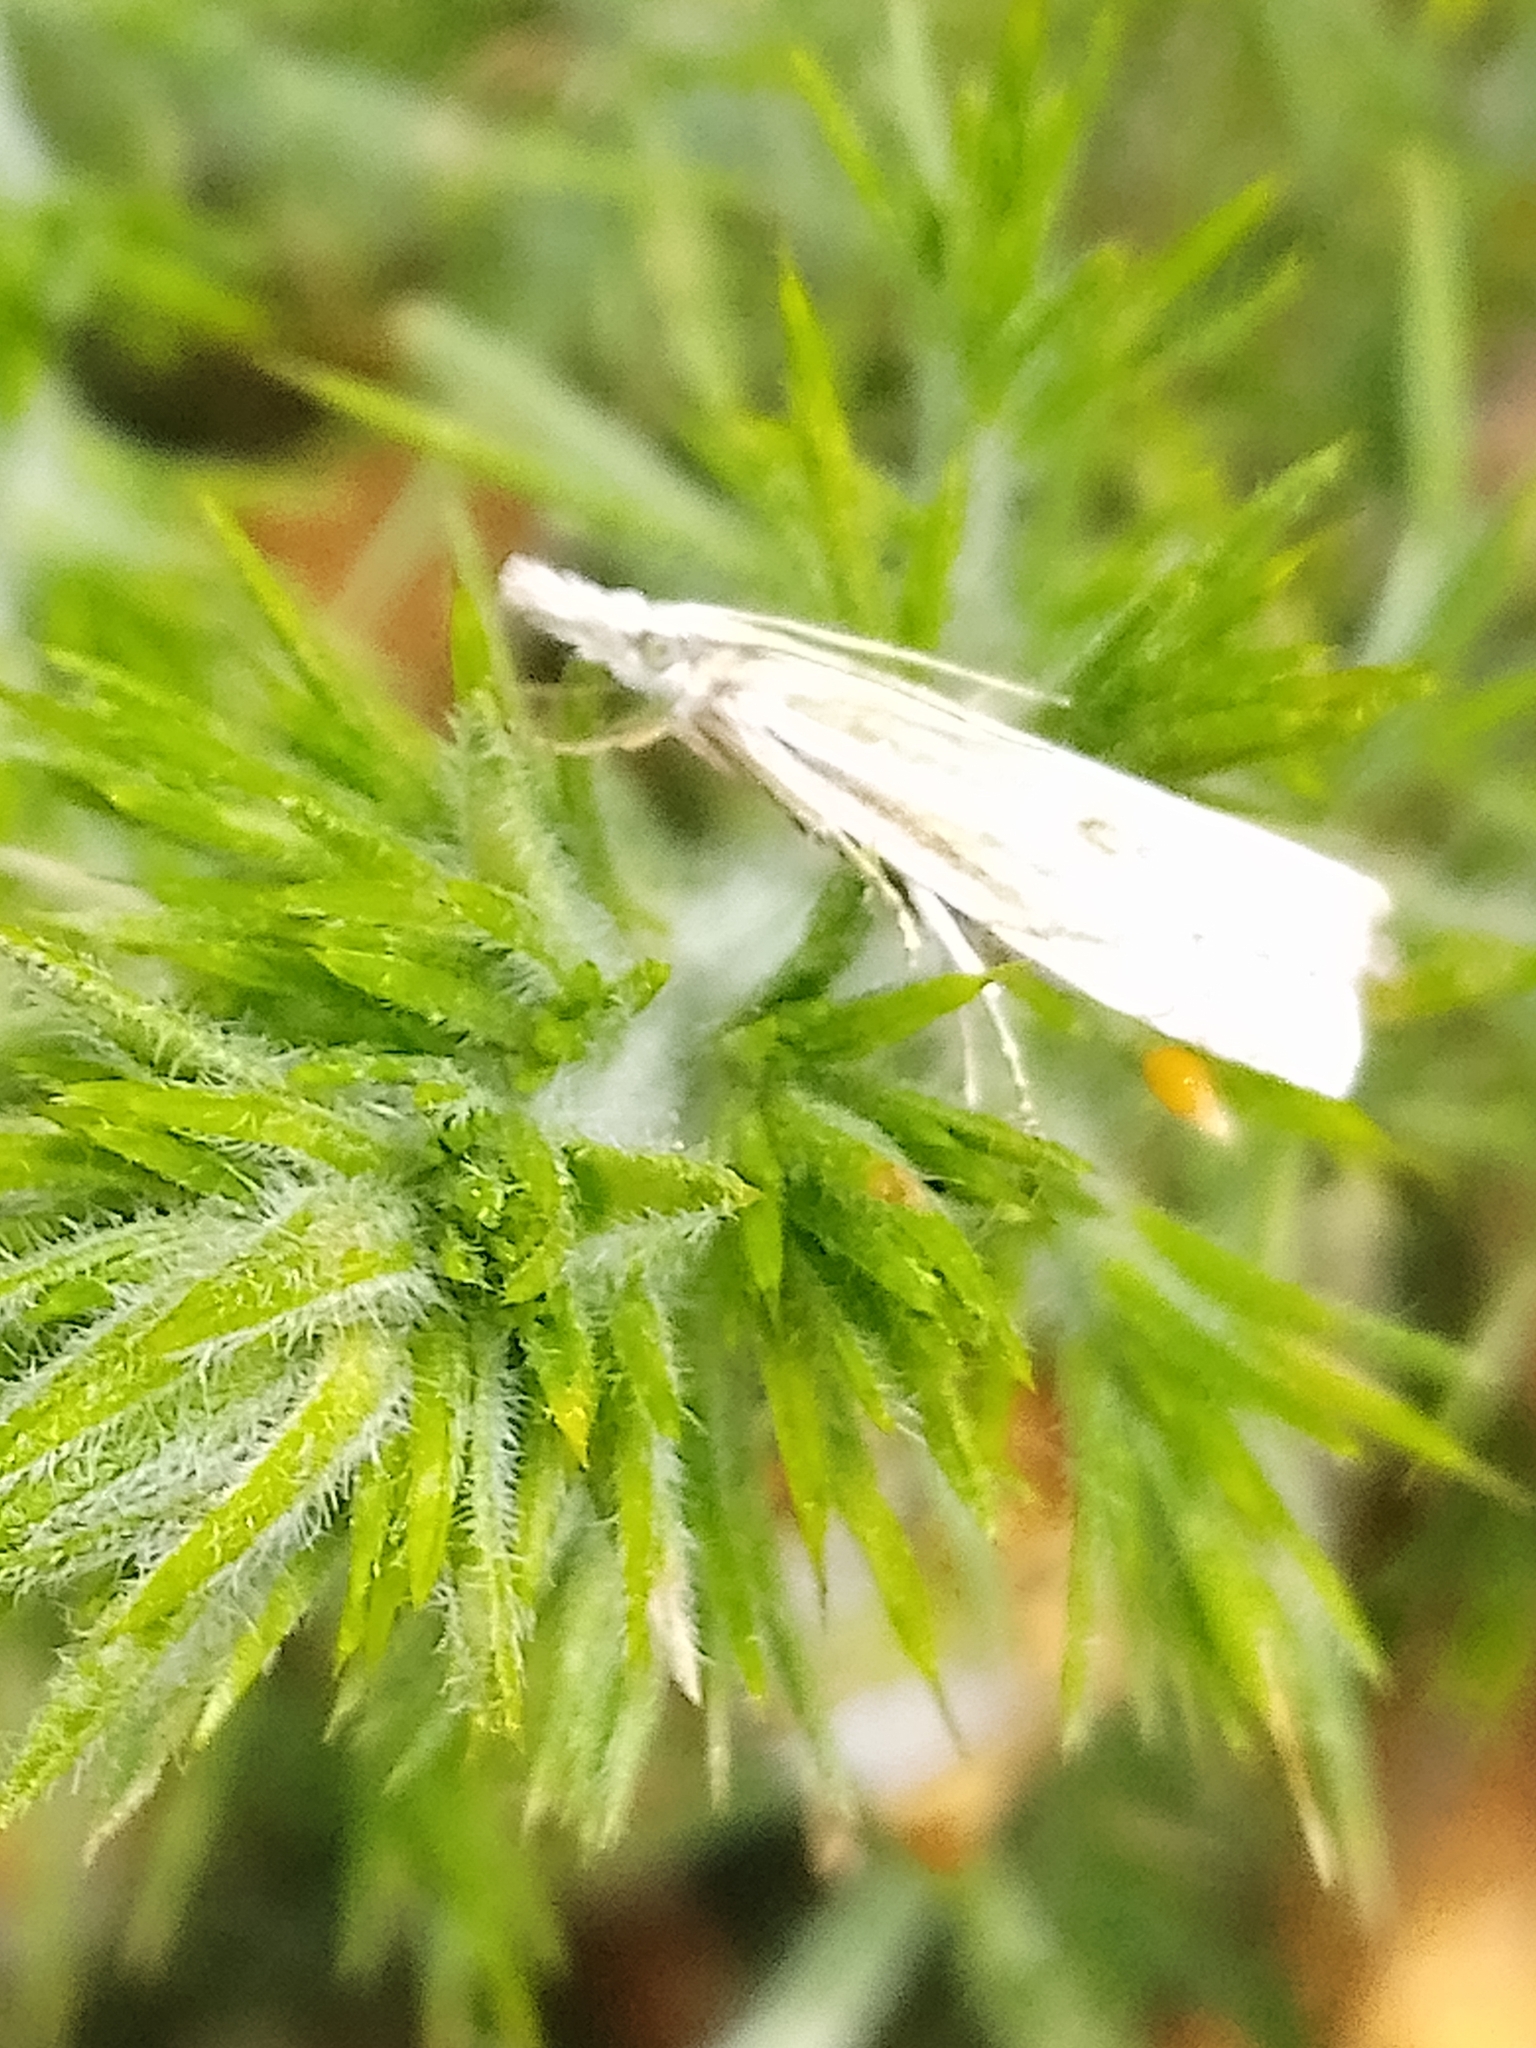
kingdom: Animalia
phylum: Arthropoda
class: Insecta
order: Lepidoptera
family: Crambidae
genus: Crambus
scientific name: Crambus nemorella
